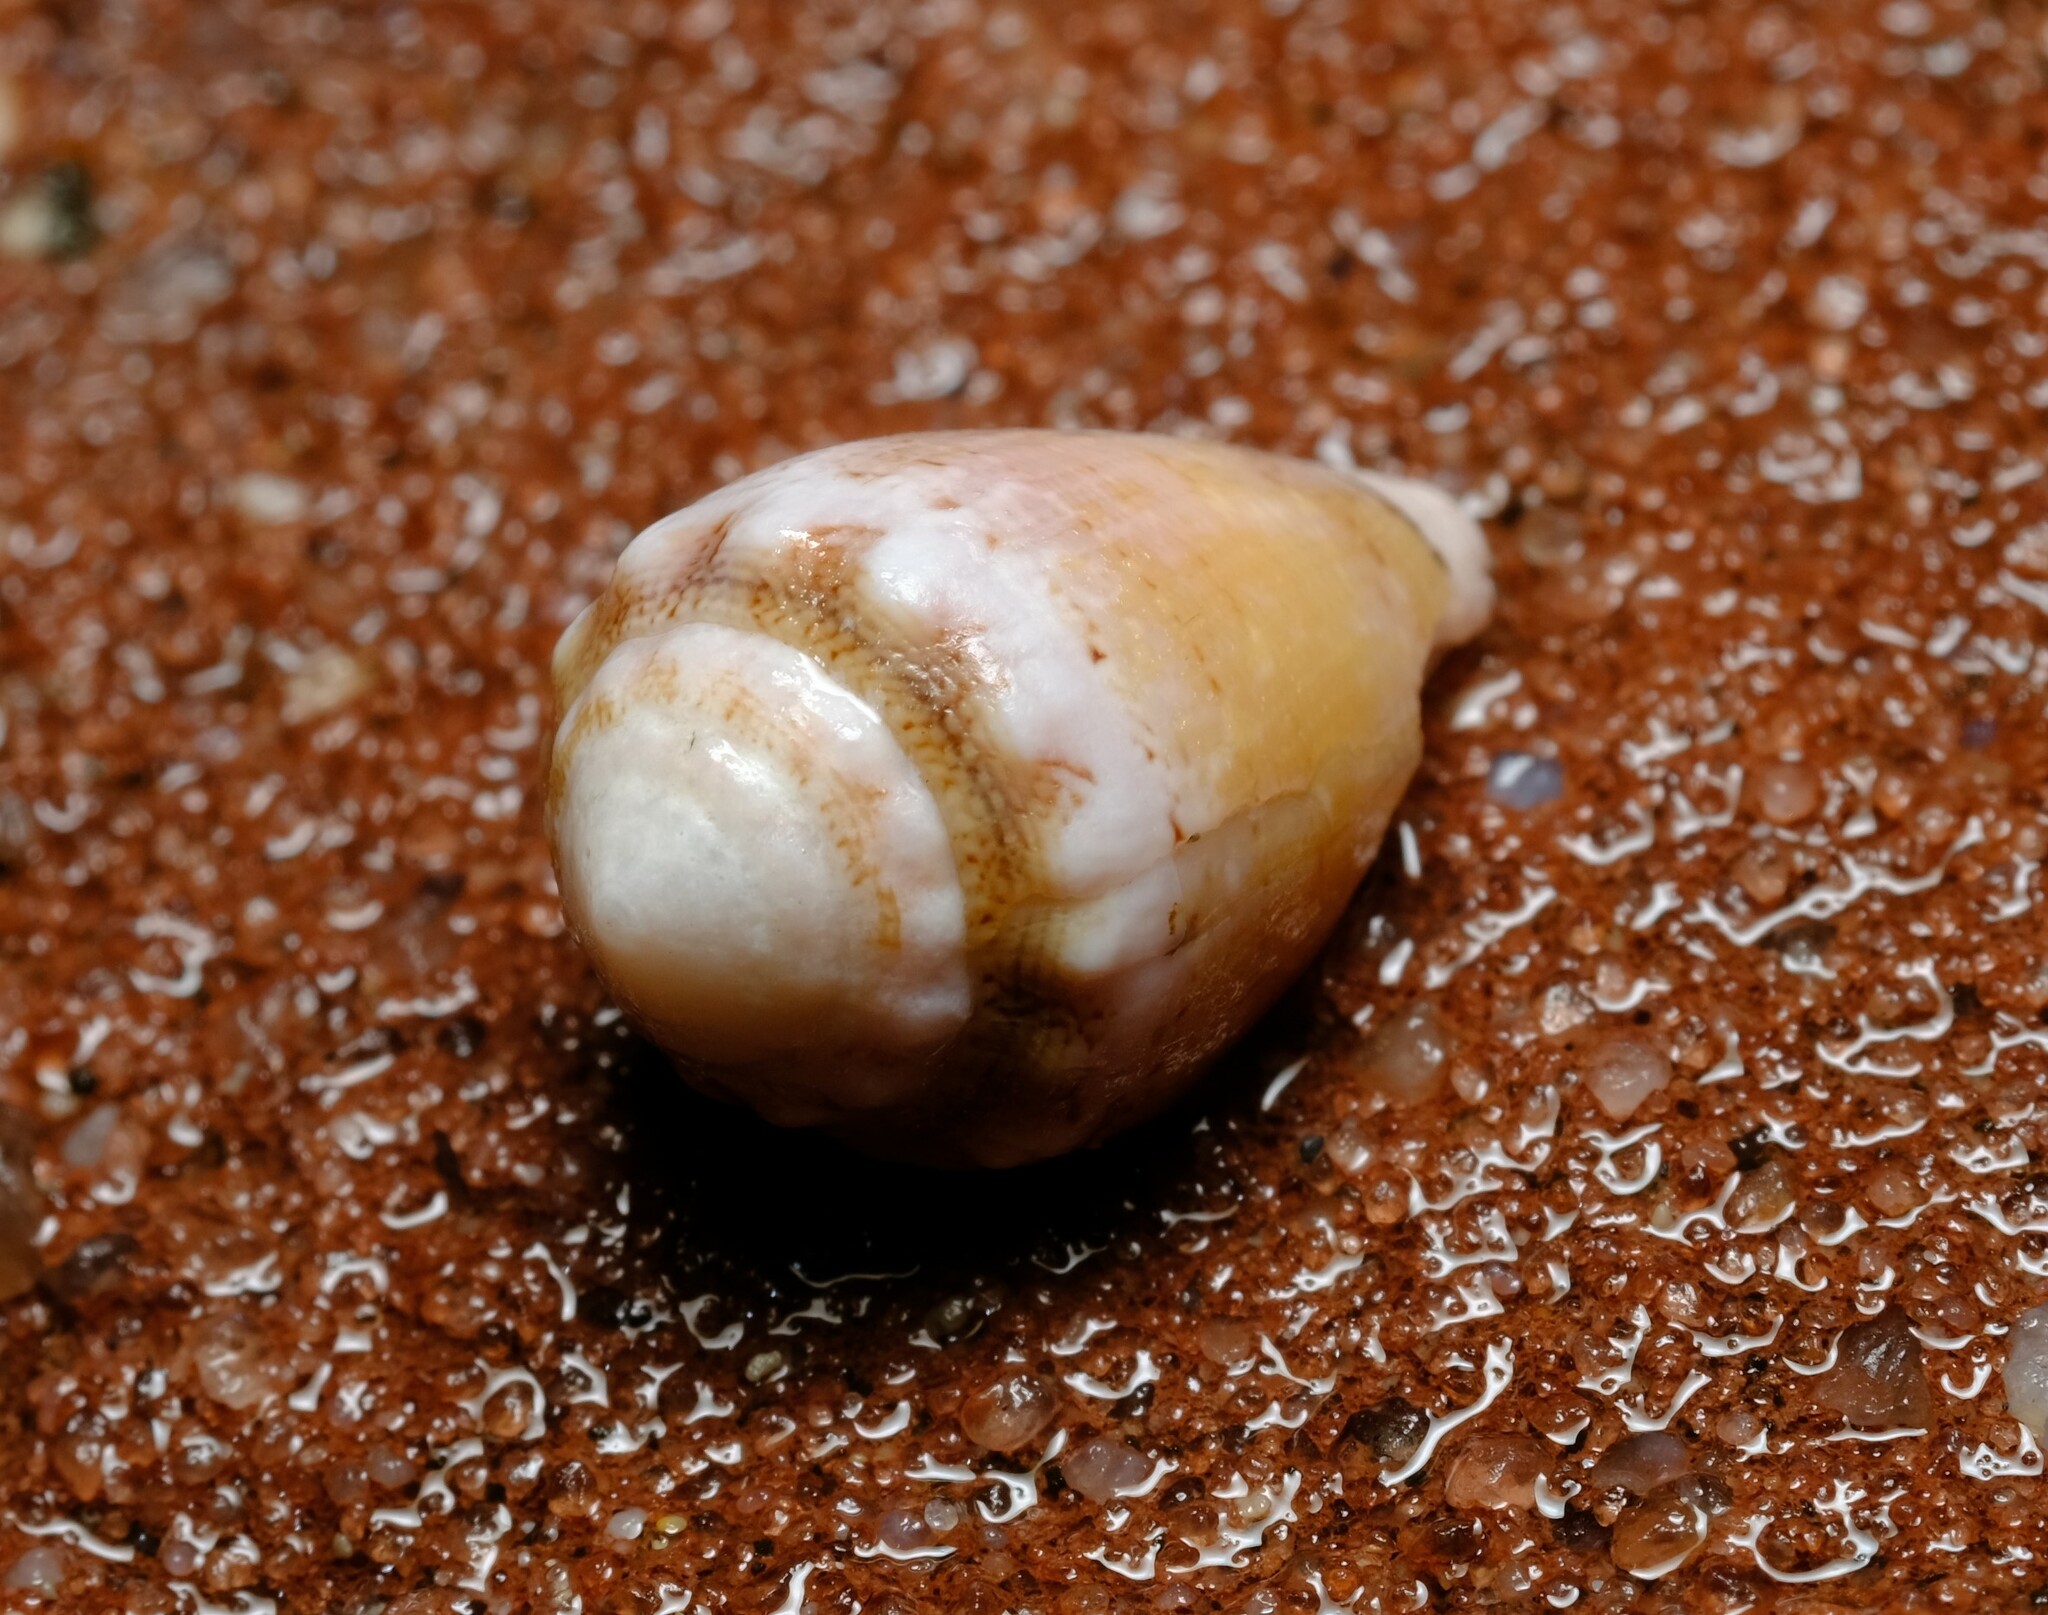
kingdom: Animalia
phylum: Mollusca
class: Gastropoda
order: Neogastropoda
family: Conidae
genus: Conus
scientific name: Conus dorreensis
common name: Pontificial cone
